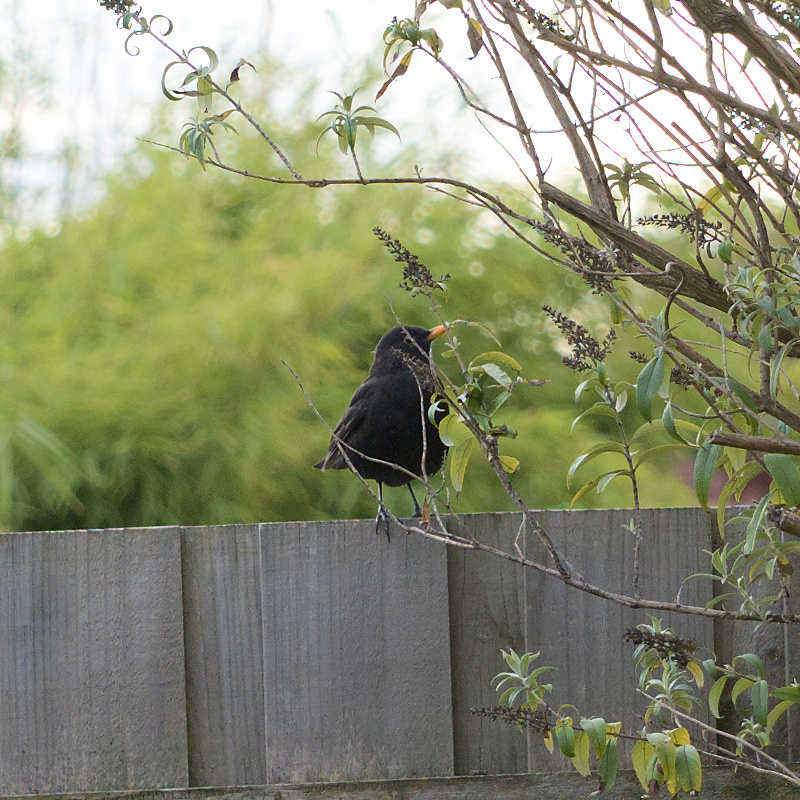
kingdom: Animalia
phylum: Chordata
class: Aves
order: Passeriformes
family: Turdidae
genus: Turdus
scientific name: Turdus merula
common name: Common blackbird
